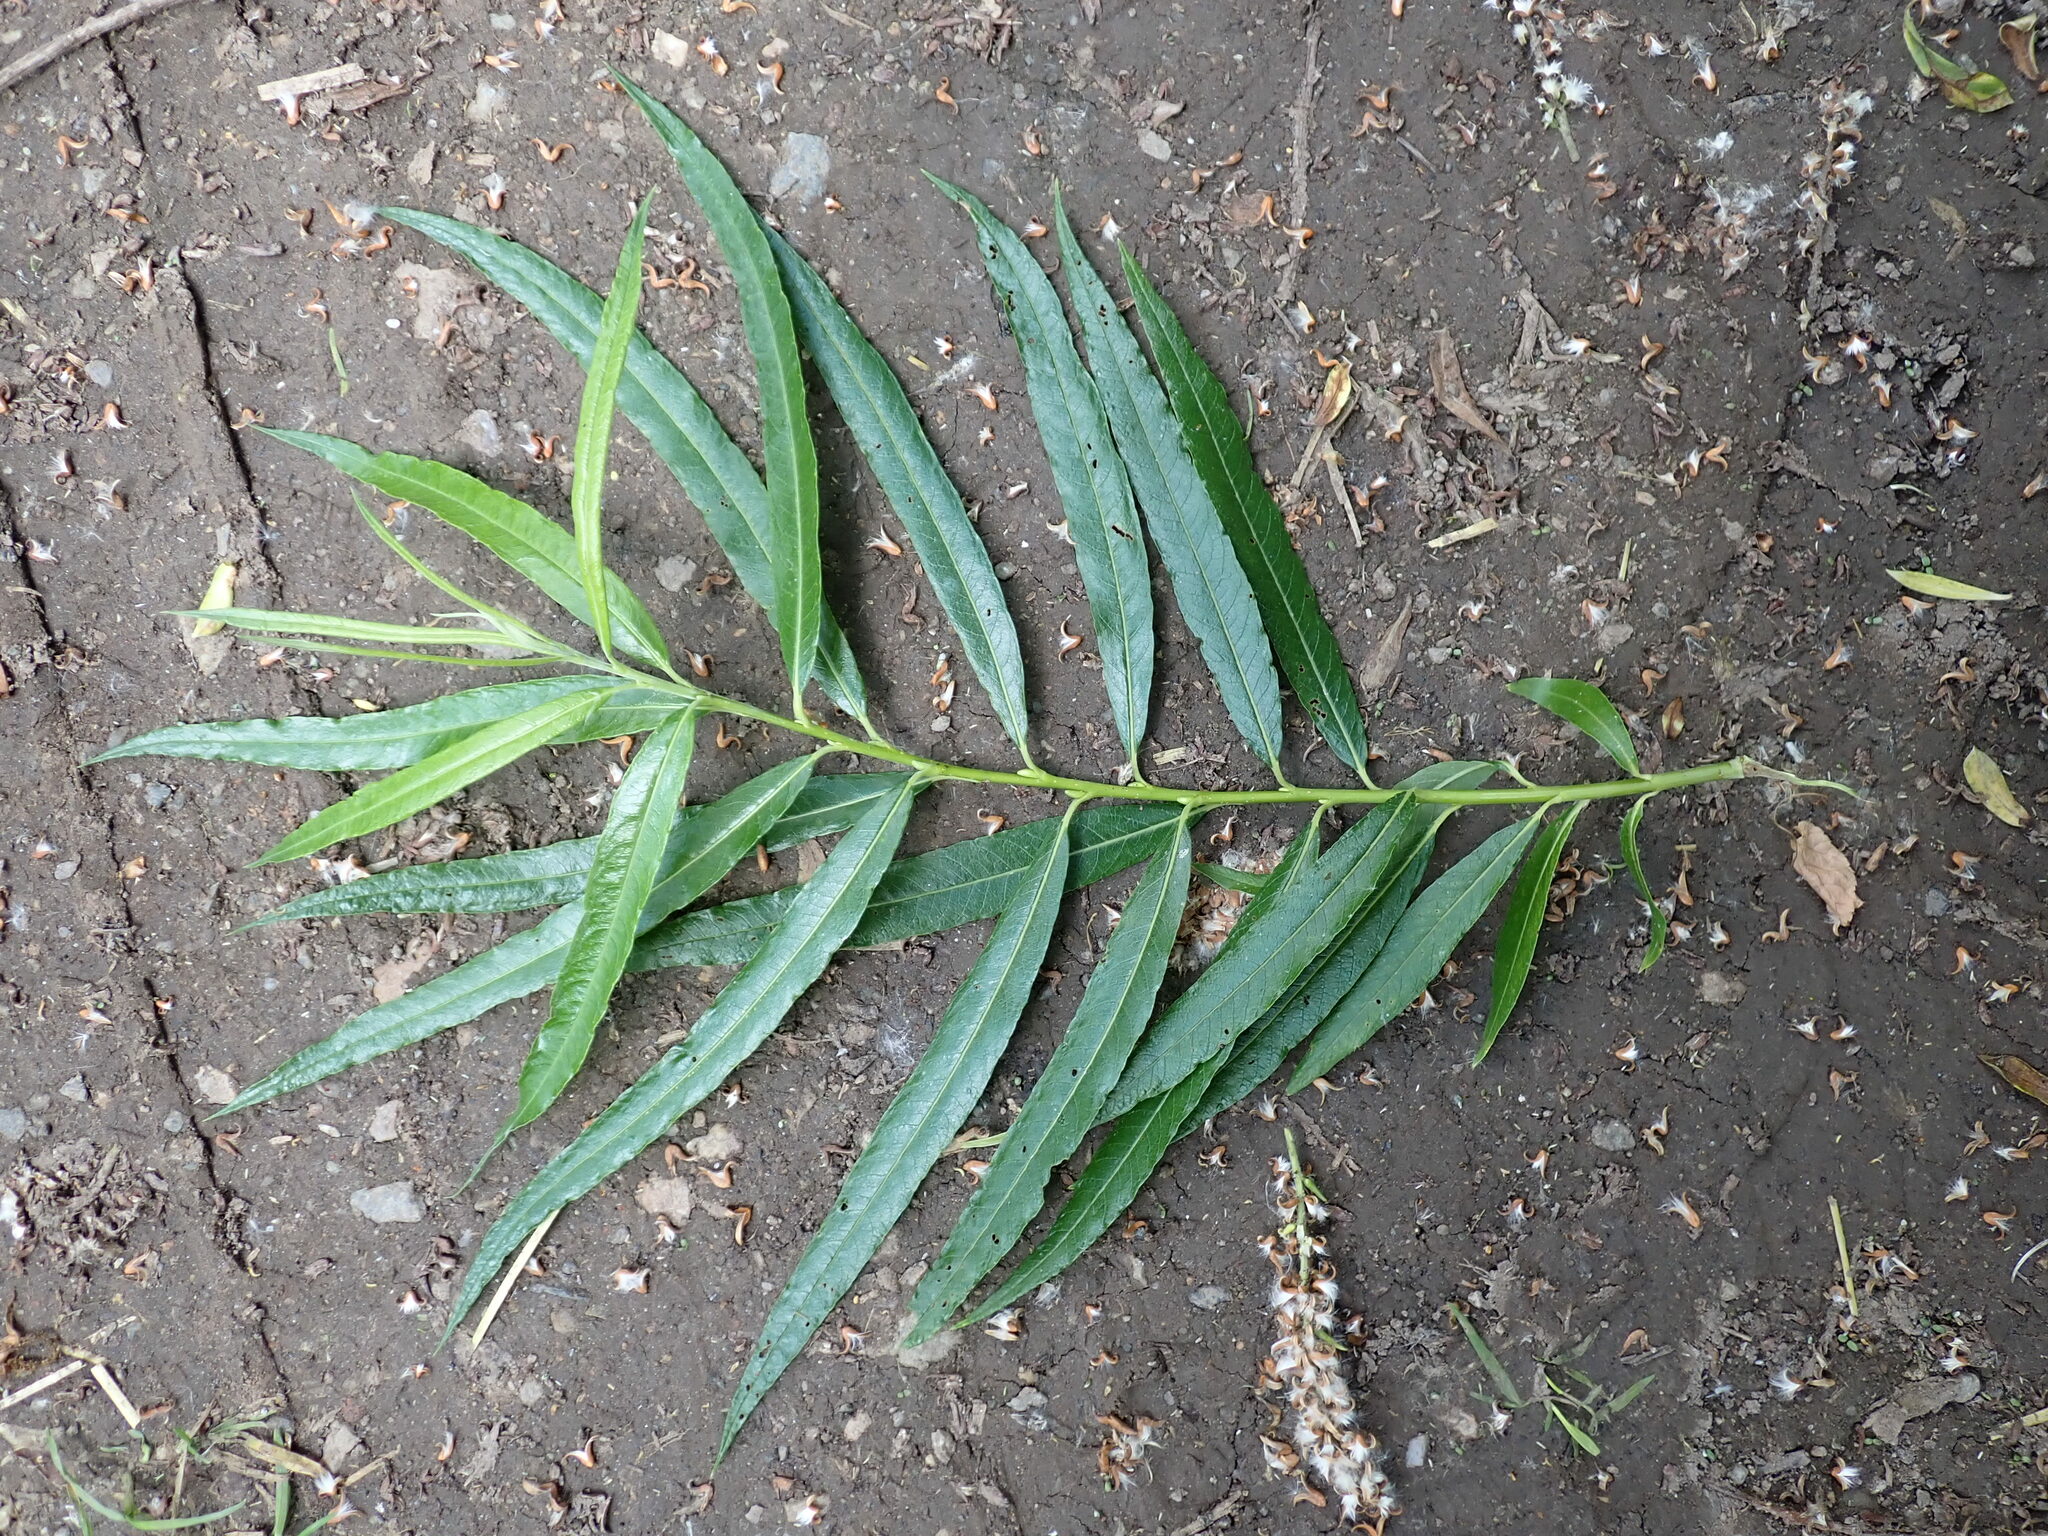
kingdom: Plantae
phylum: Tracheophyta
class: Magnoliopsida
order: Malpighiales
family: Salicaceae
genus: Salix
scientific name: Salix viminalis
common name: Osier
